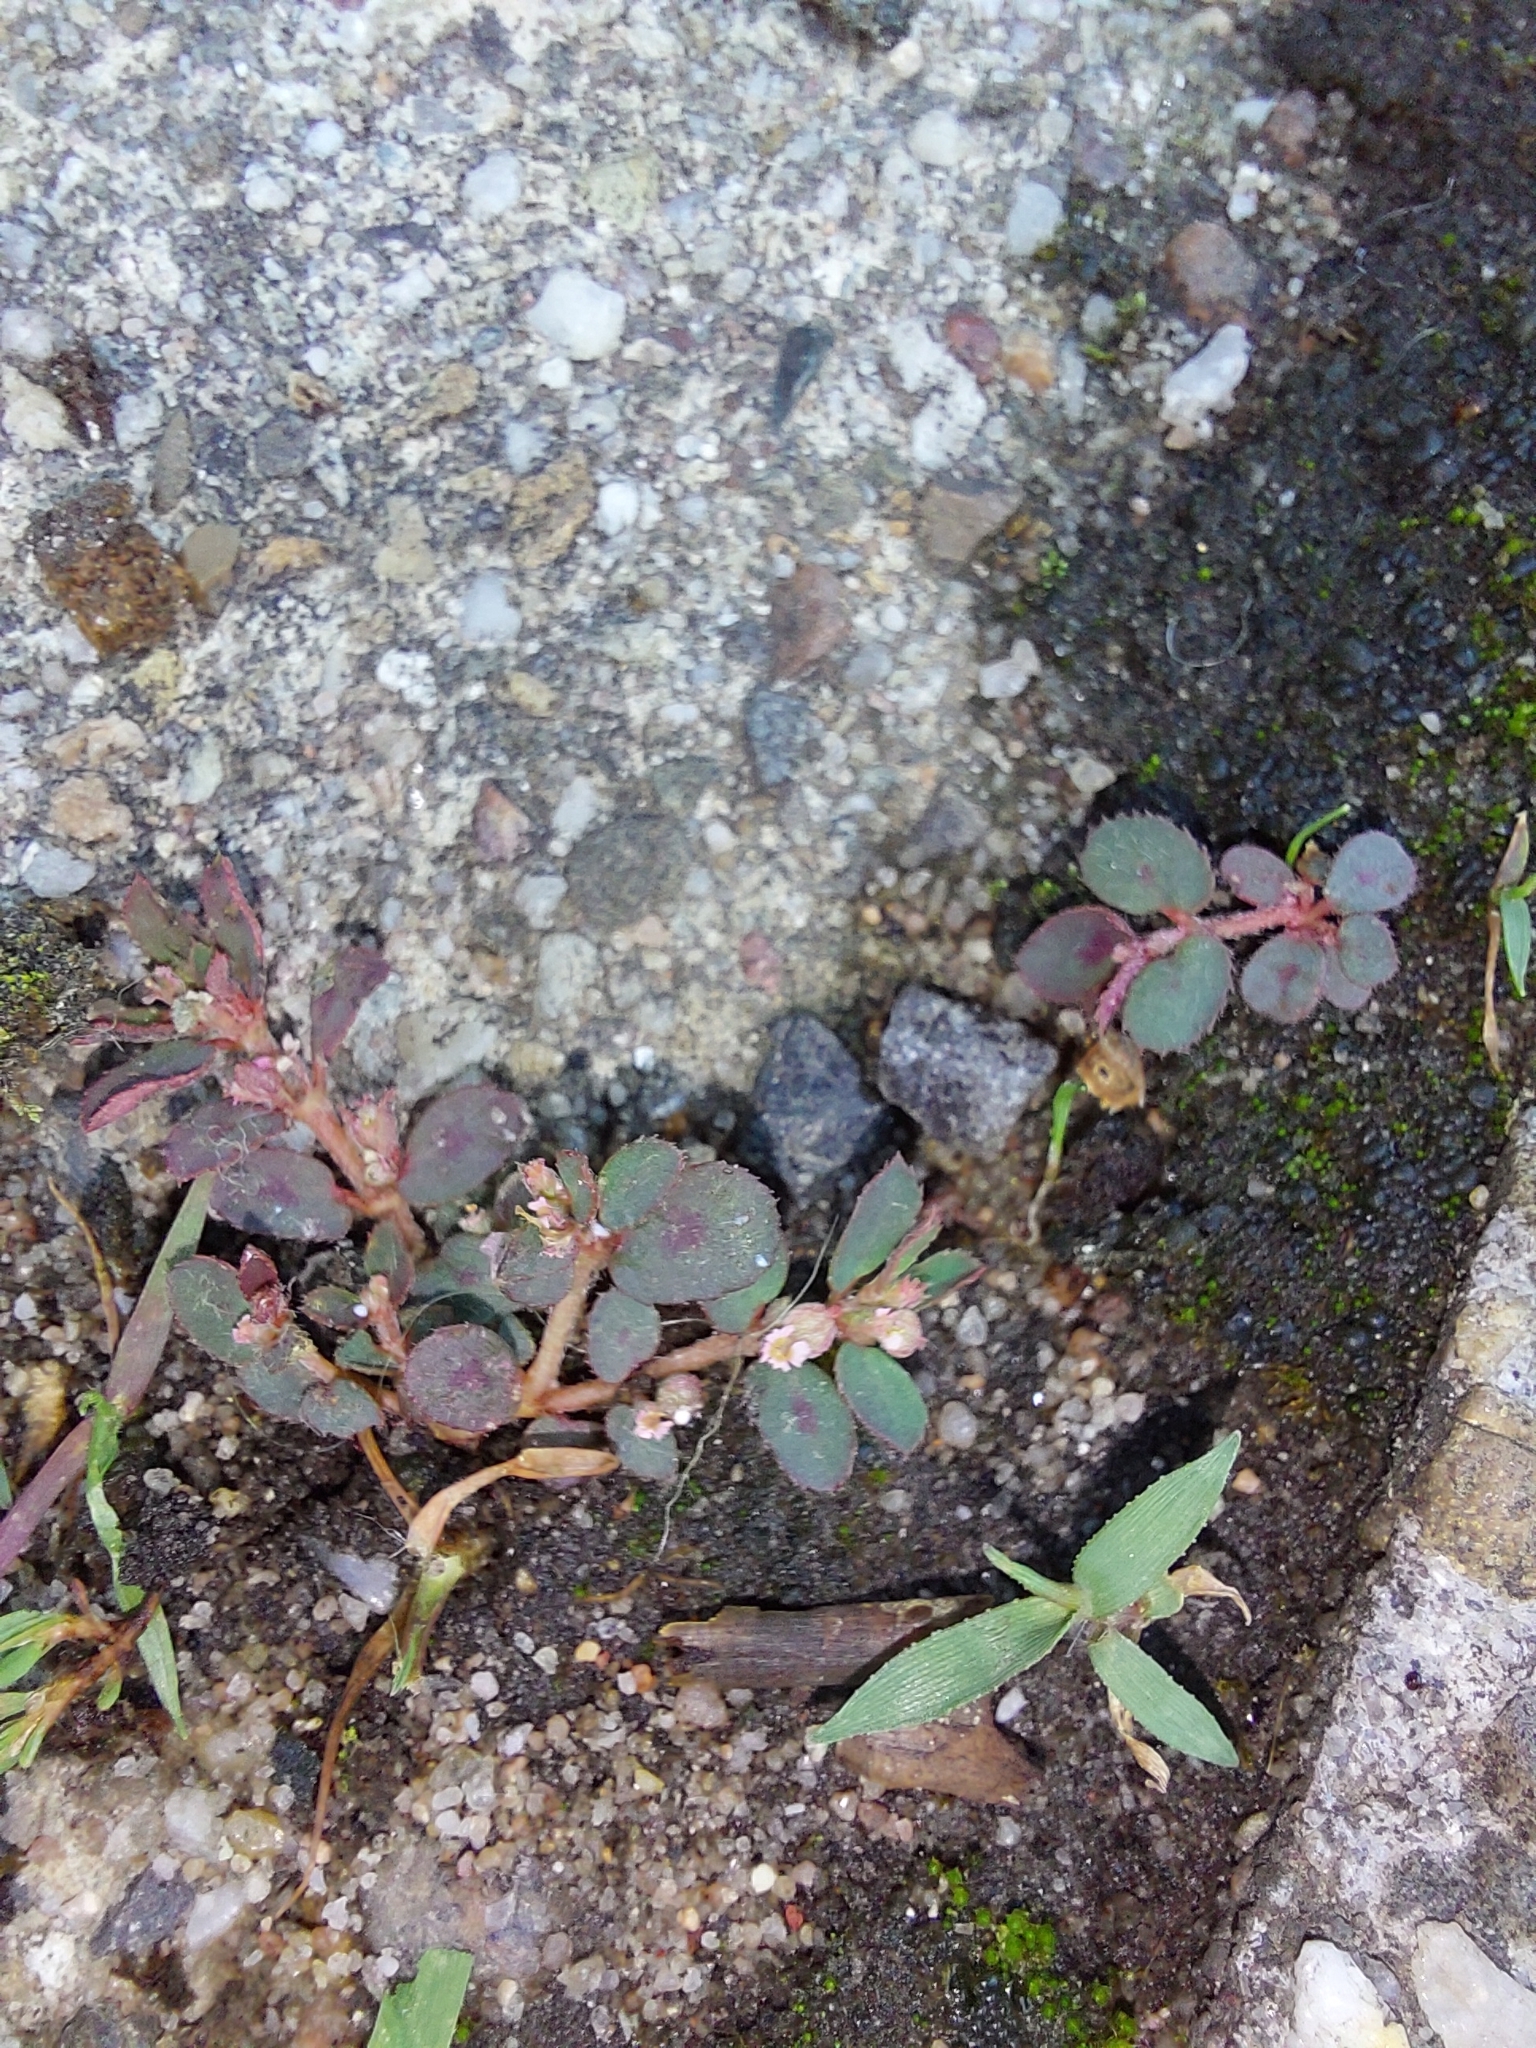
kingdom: Plantae
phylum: Tracheophyta
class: Magnoliopsida
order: Malpighiales
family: Euphorbiaceae
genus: Euphorbia
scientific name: Euphorbia maculata
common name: Spotted spurge
